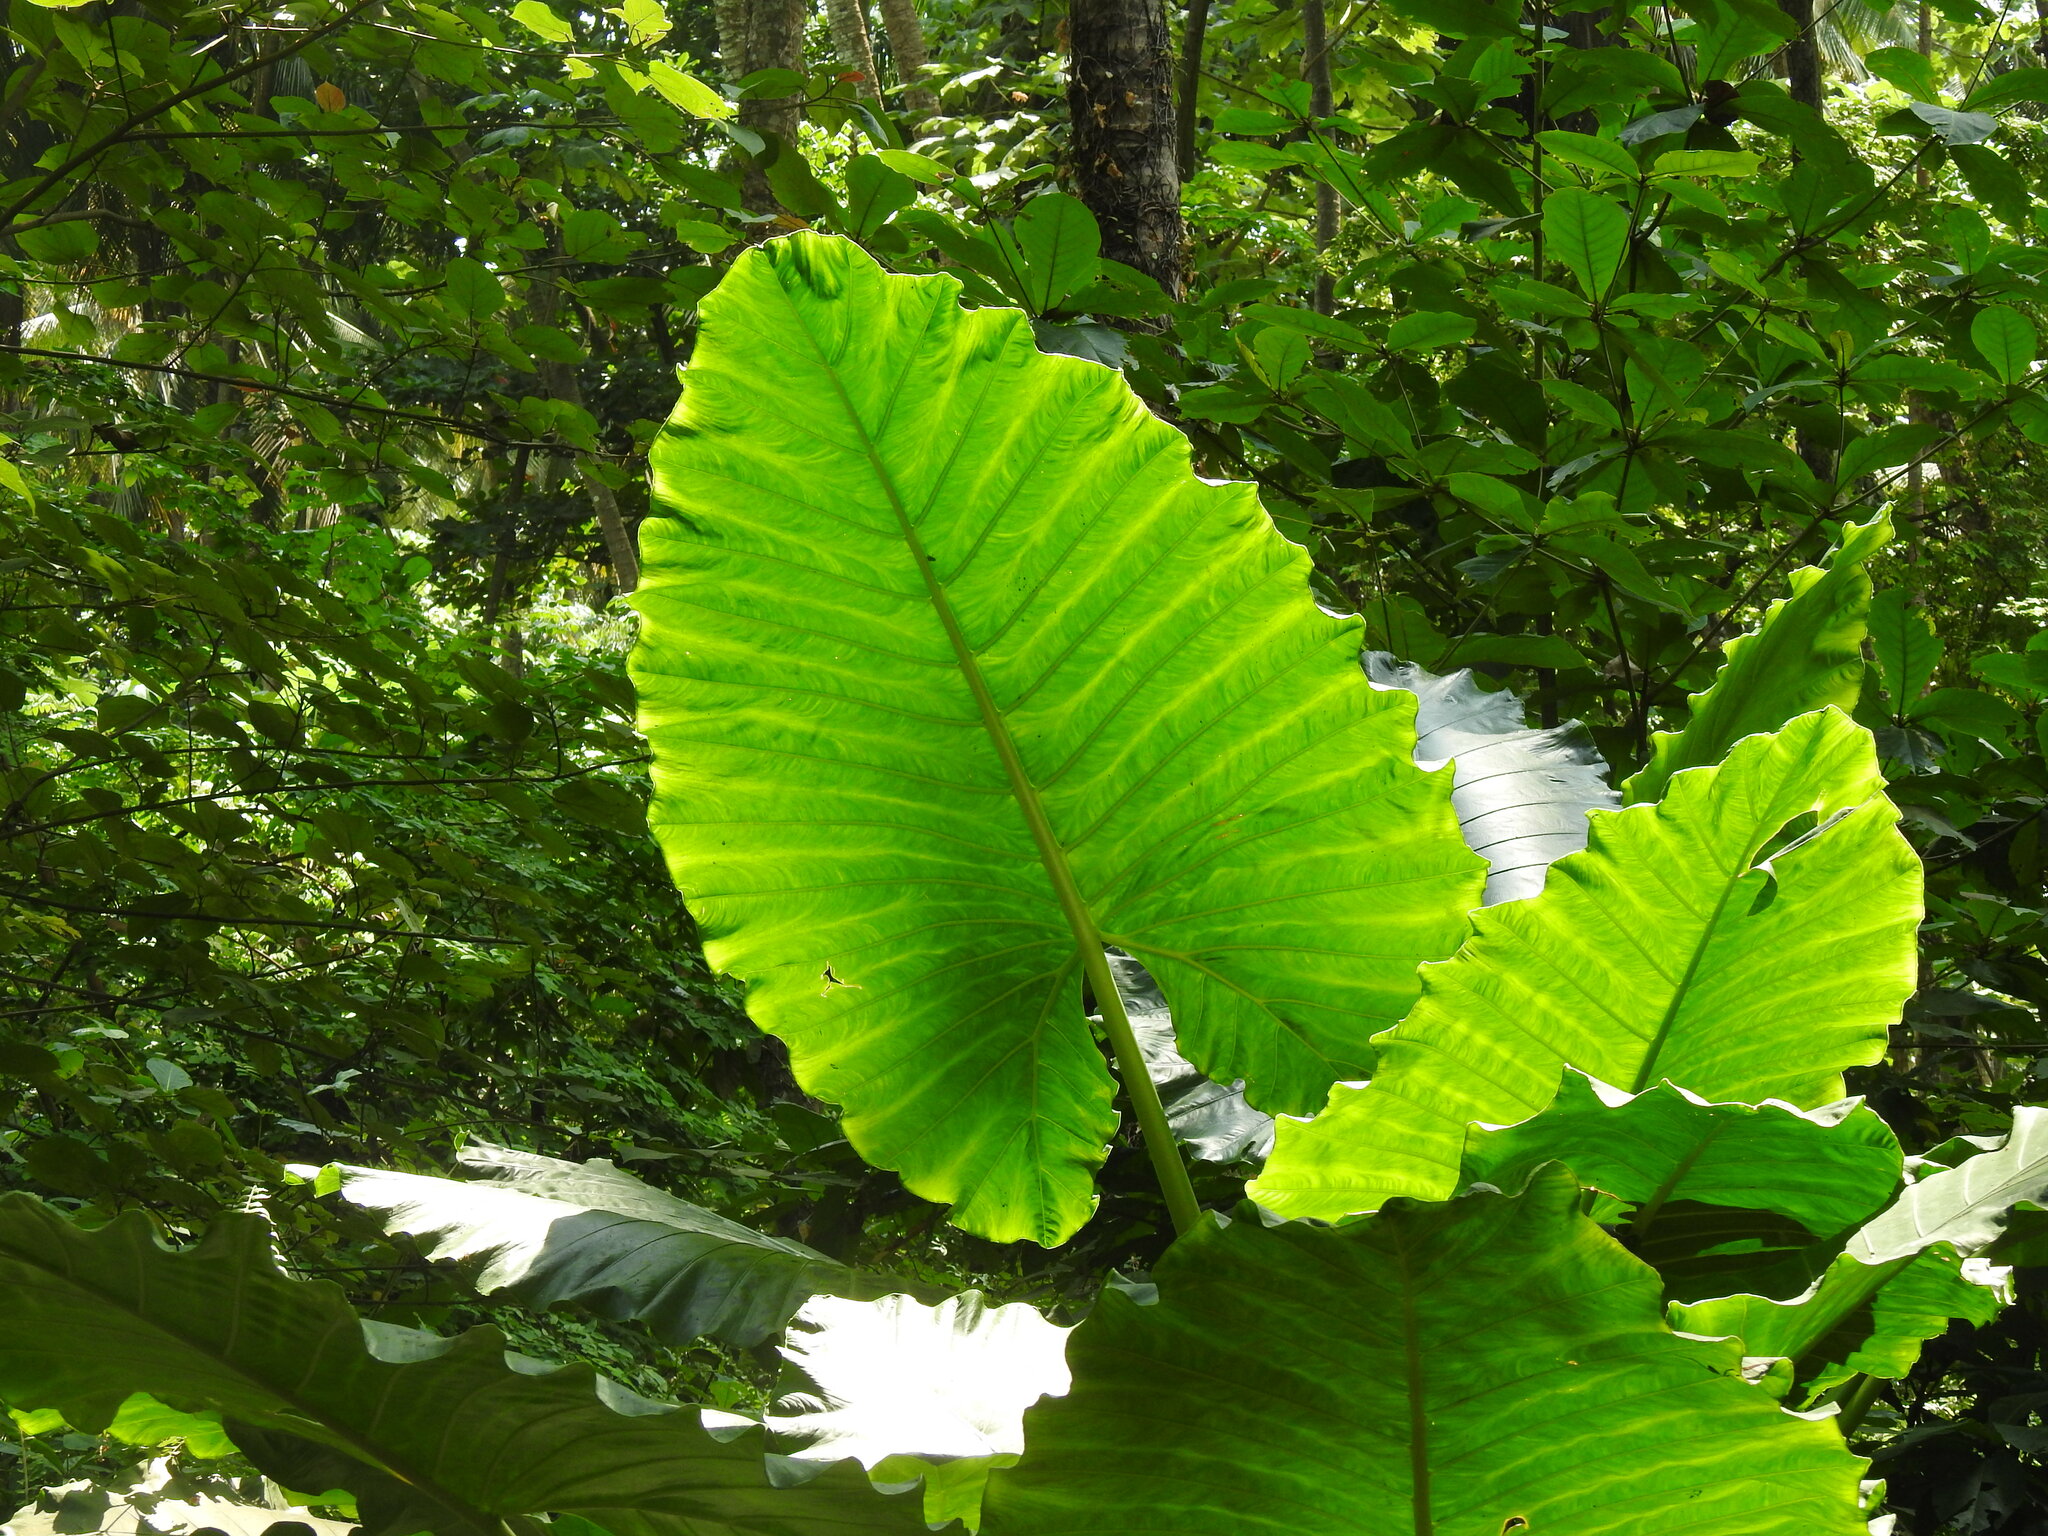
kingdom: Plantae
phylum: Tracheophyta
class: Liliopsida
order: Alismatales
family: Araceae
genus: Alocasia
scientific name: Alocasia macrorrhizos
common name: Giant taro
